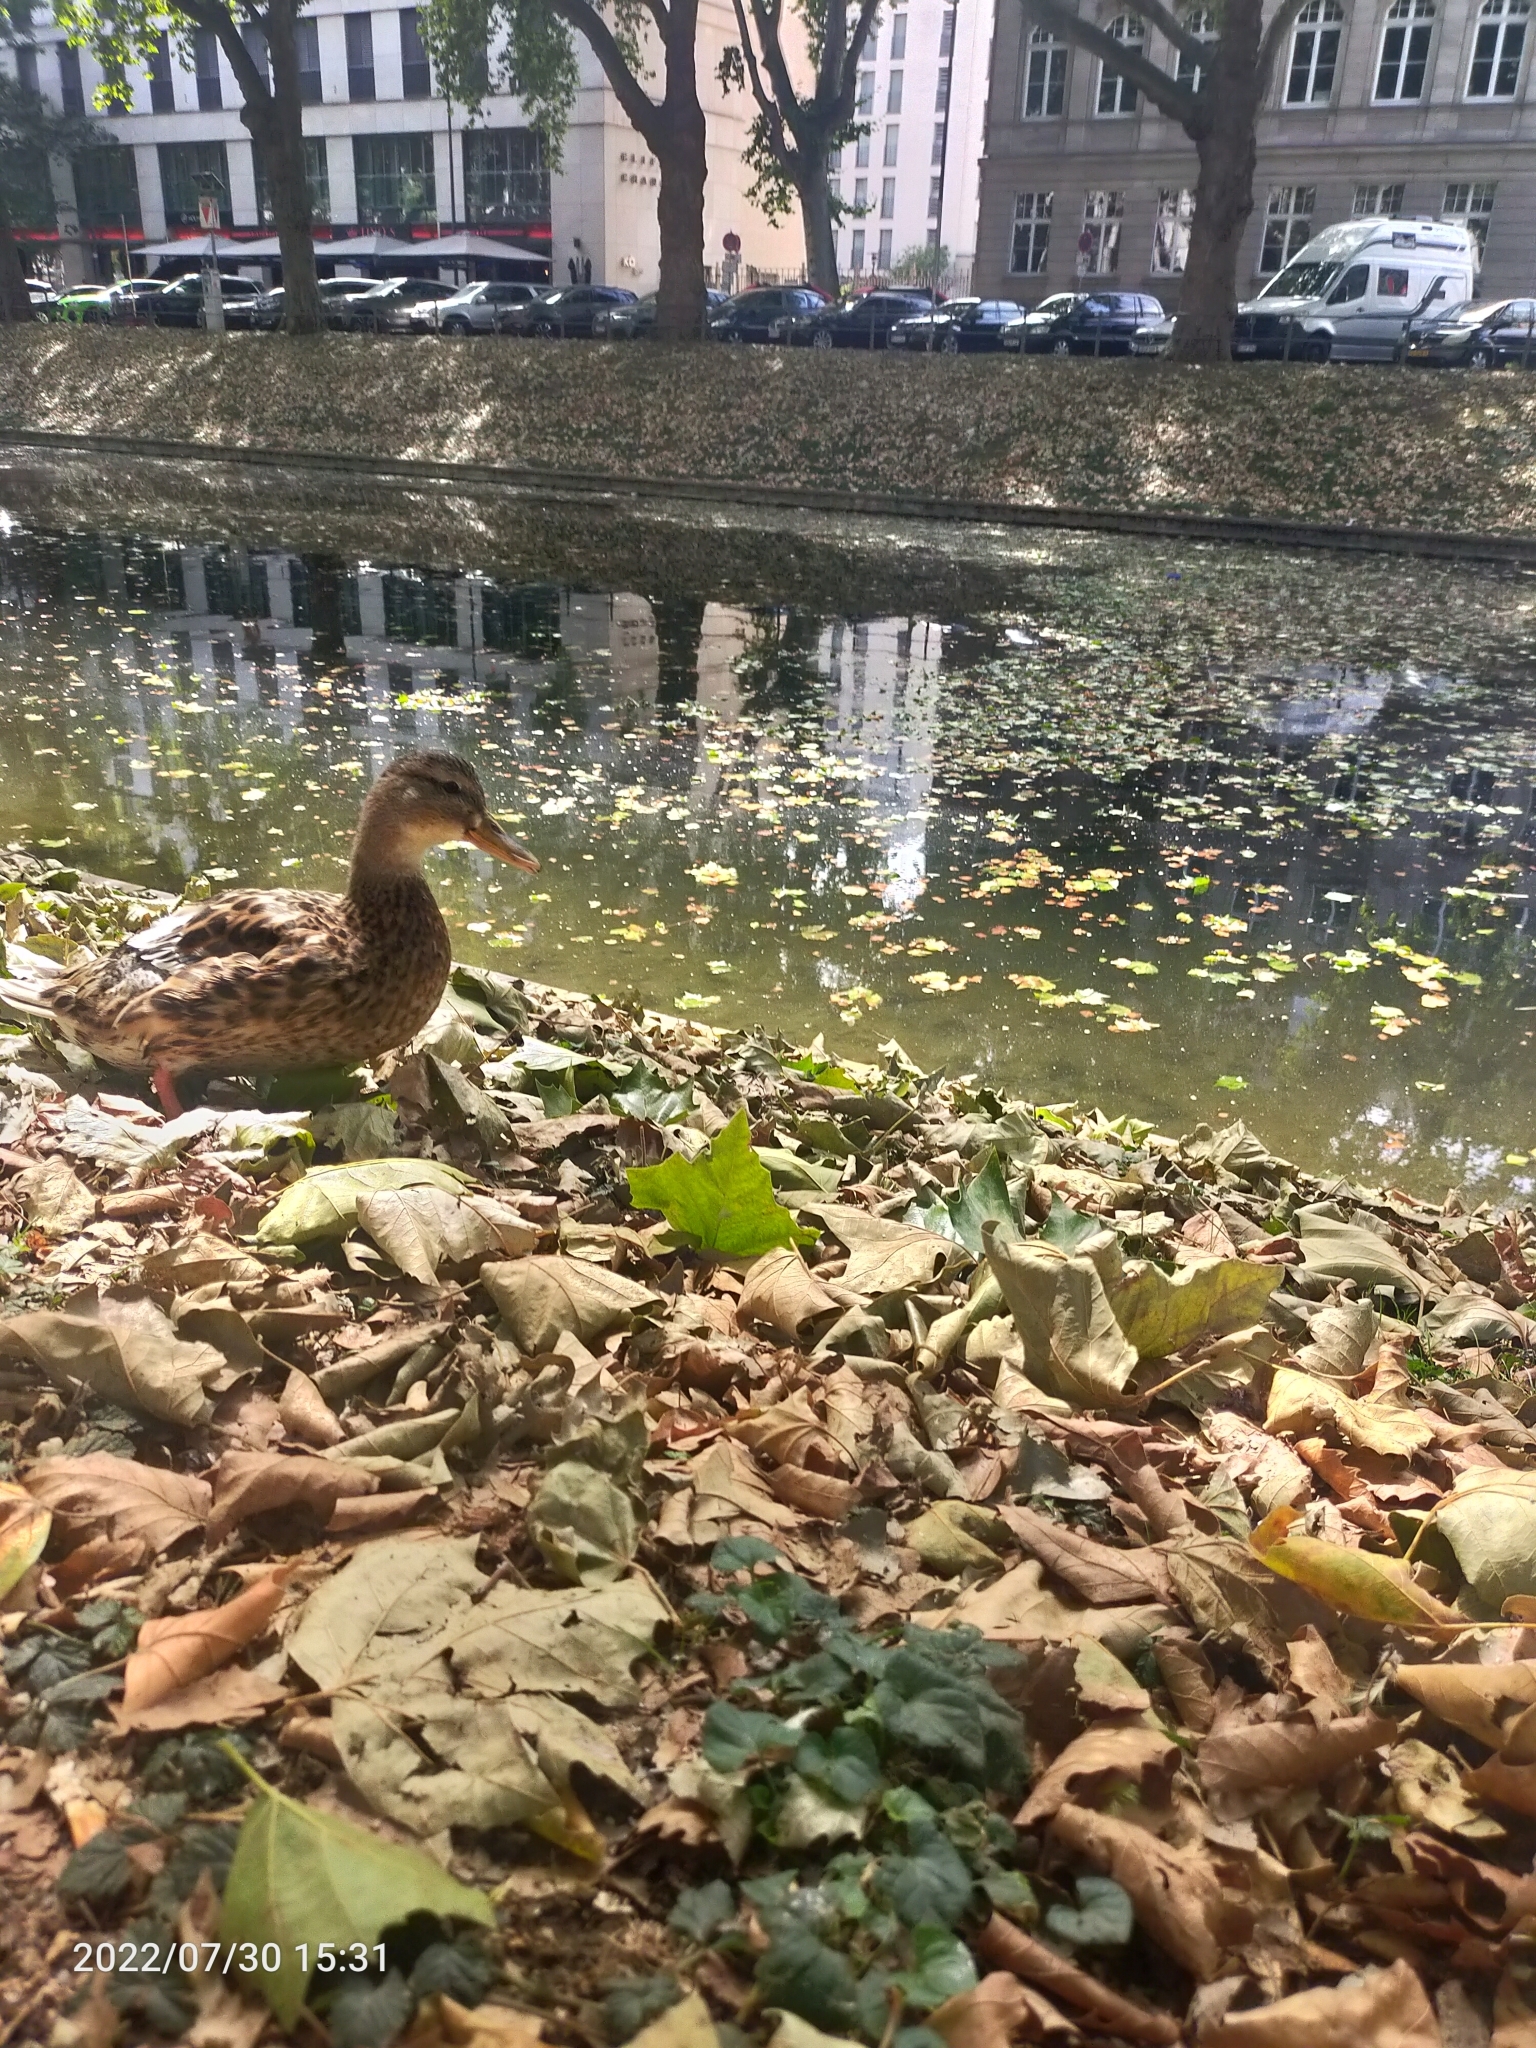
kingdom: Animalia
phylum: Chordata
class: Aves
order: Anseriformes
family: Anatidae
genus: Anas
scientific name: Anas platyrhynchos
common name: Mallard
